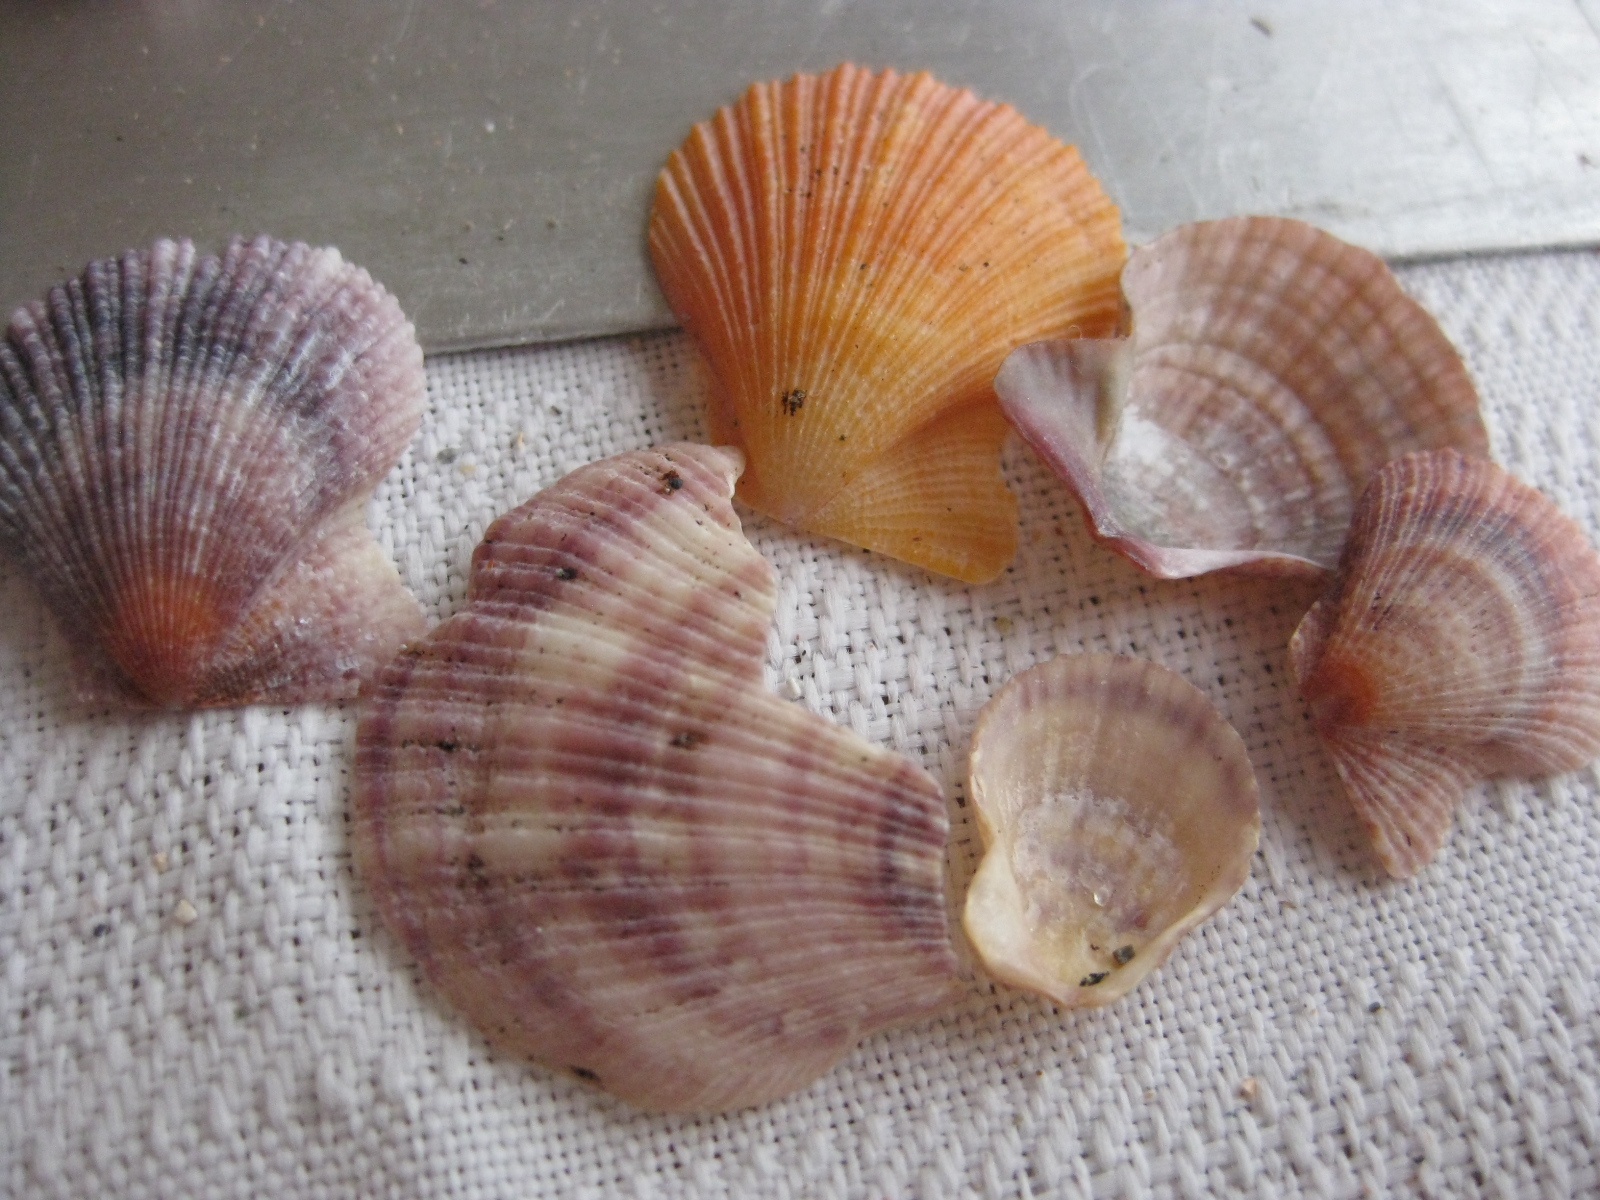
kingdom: Animalia
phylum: Mollusca
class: Bivalvia
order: Pectinida
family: Pectinidae
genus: Talochlamys
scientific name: Talochlamys zelandiae
